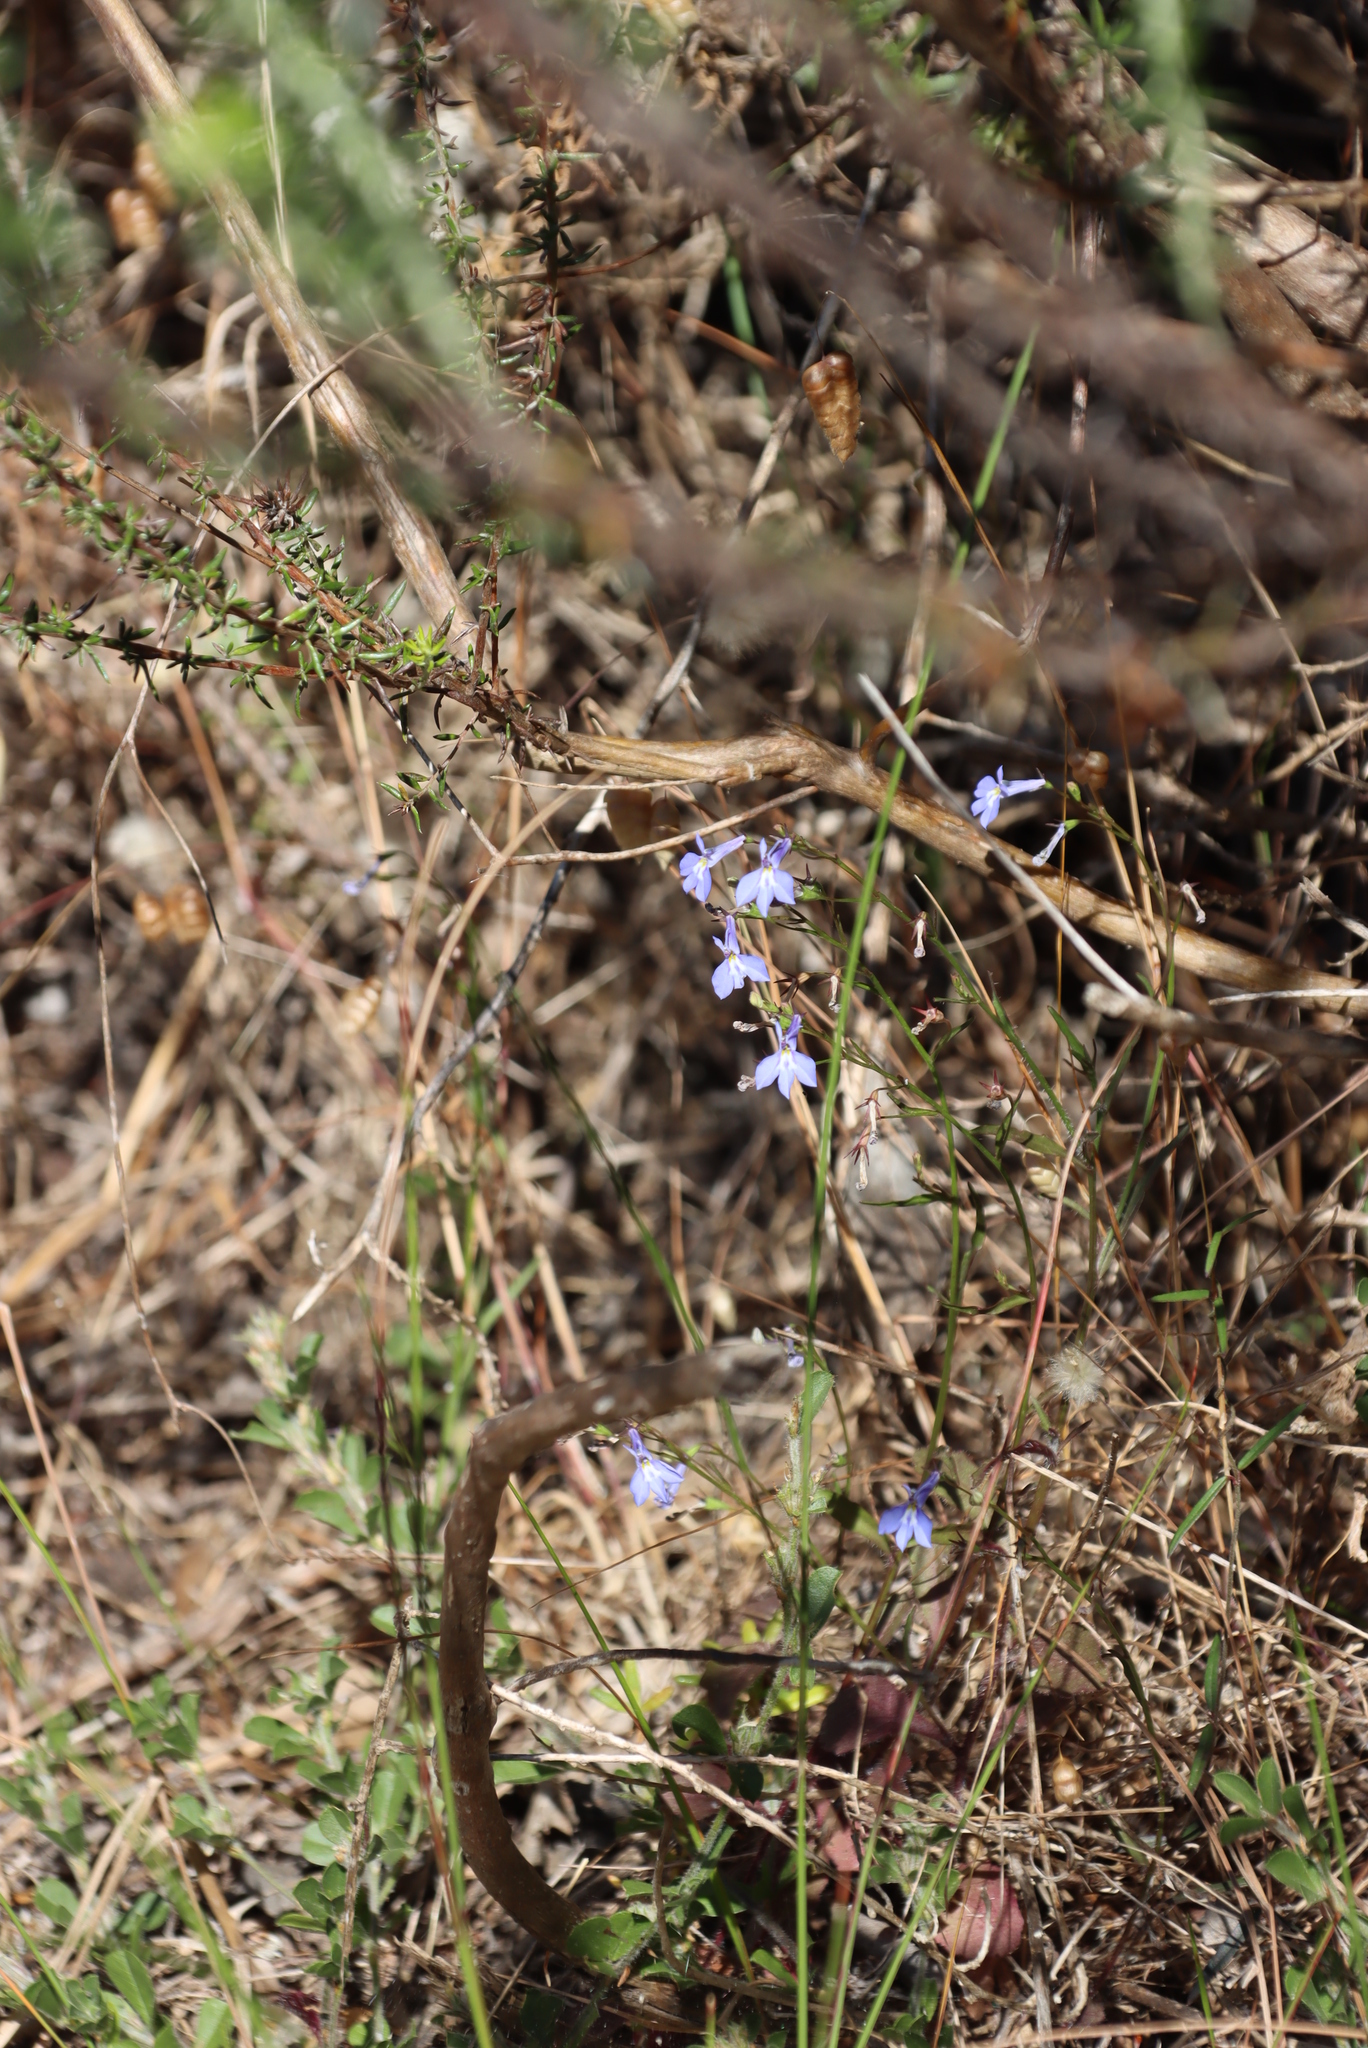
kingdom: Plantae
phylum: Tracheophyta
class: Magnoliopsida
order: Asterales
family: Campanulaceae
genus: Lobelia
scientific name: Lobelia erinus
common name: Edging lobelia
